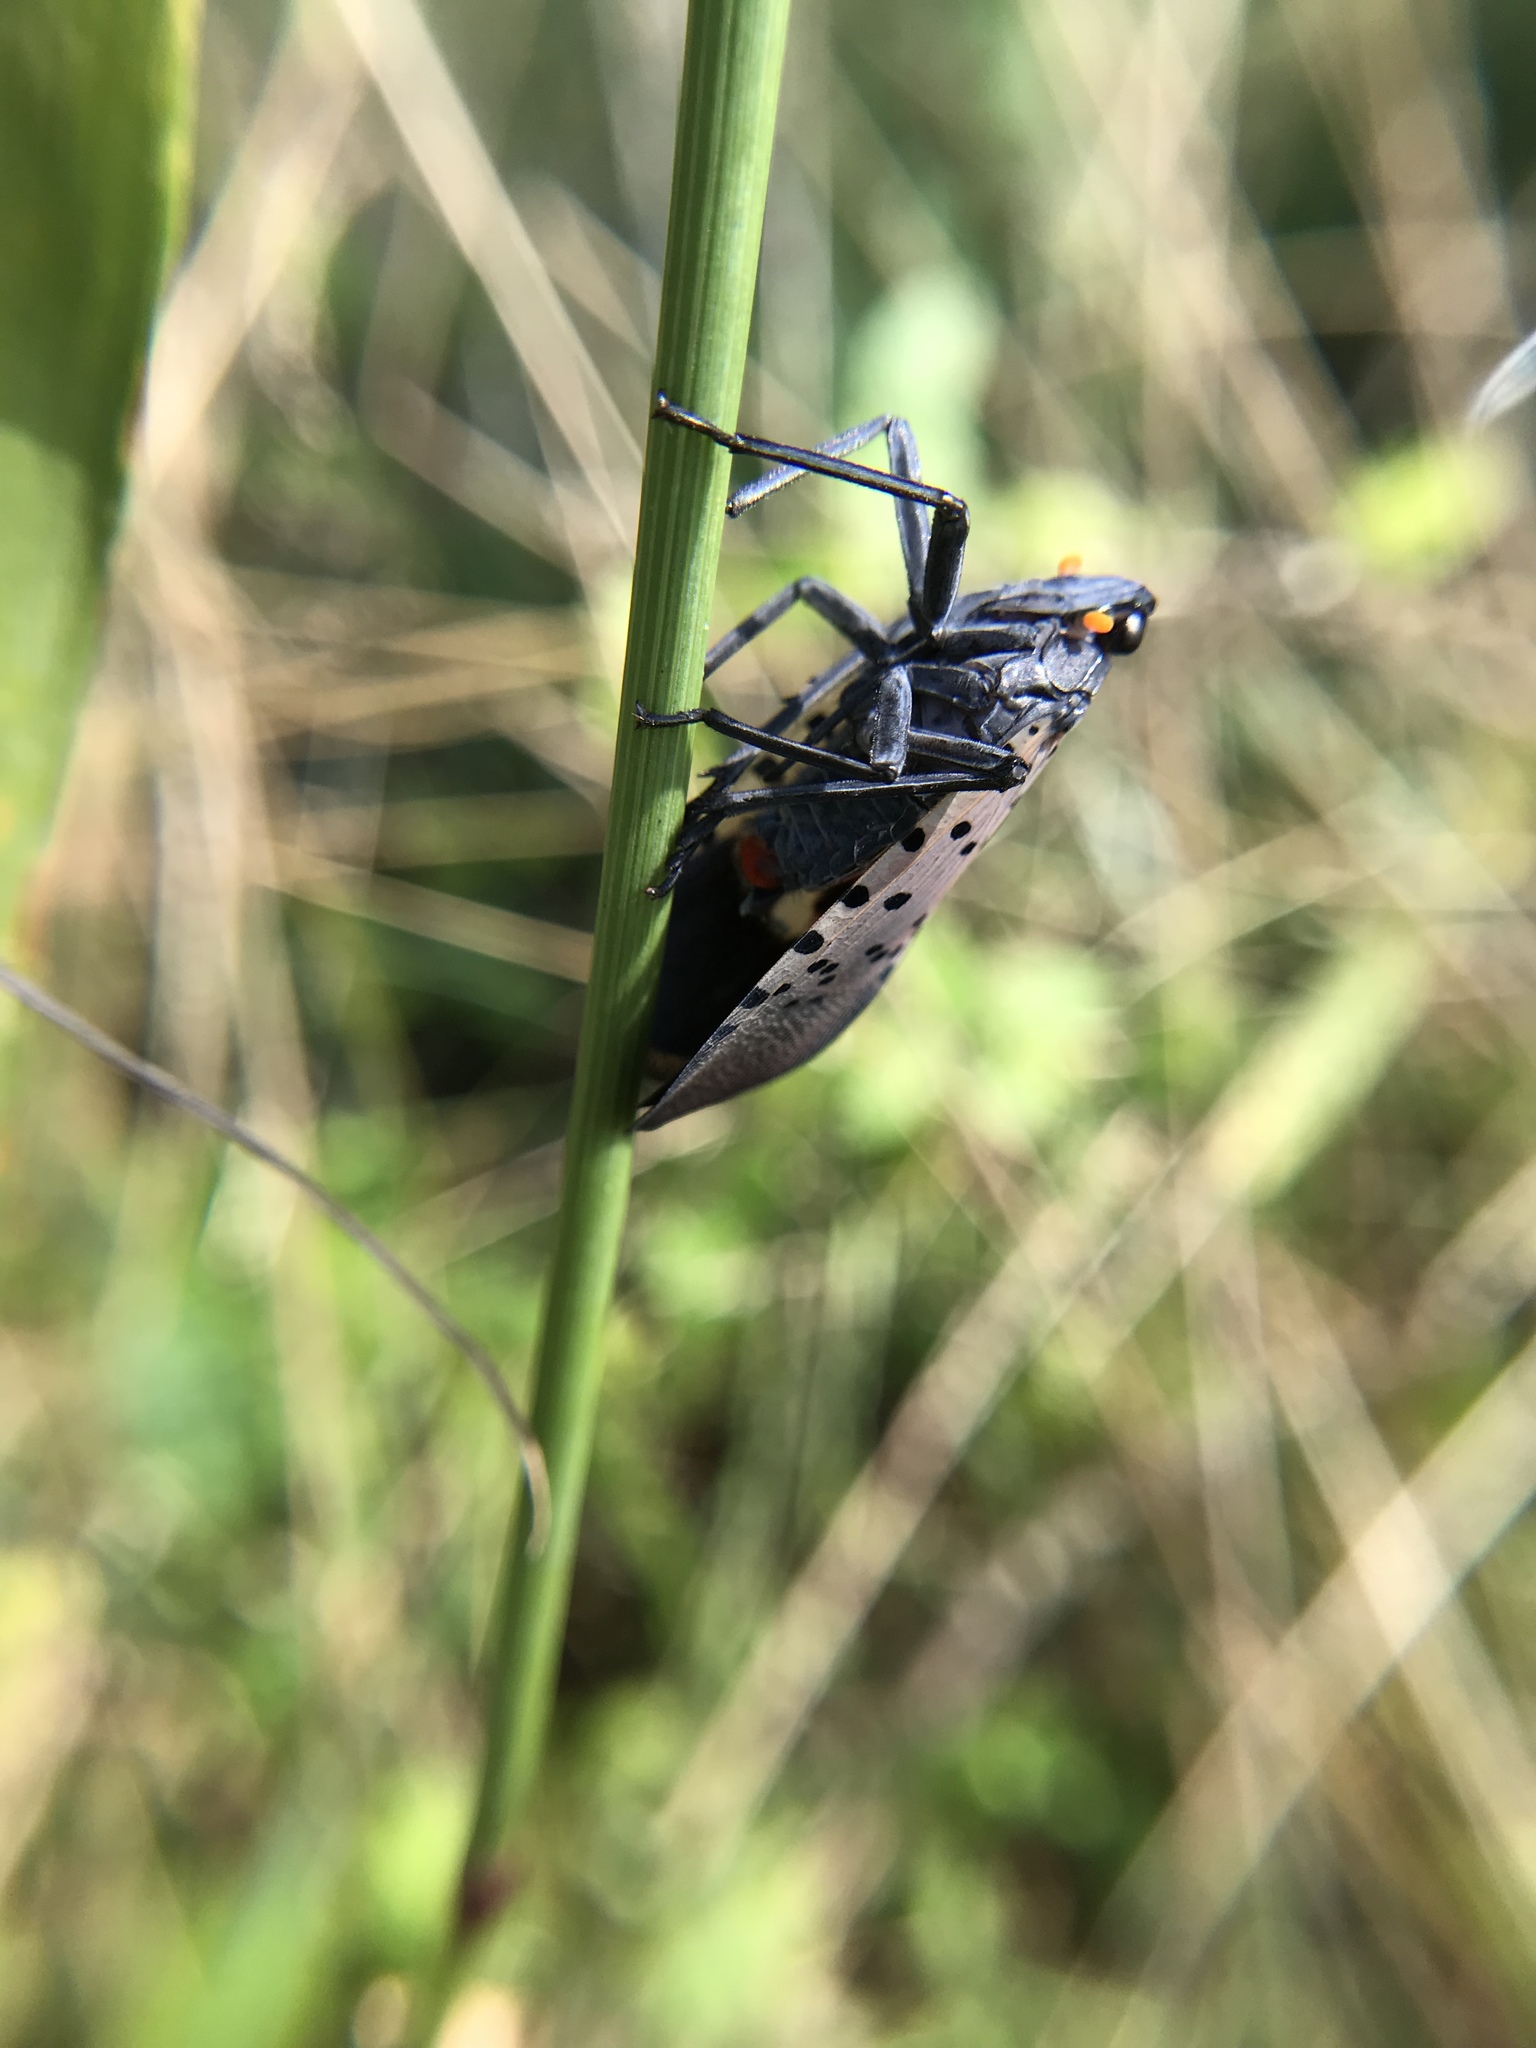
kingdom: Animalia
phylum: Arthropoda
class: Insecta
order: Hemiptera
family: Fulgoridae
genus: Lycorma
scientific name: Lycorma delicatula
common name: Spotted lanternfly
